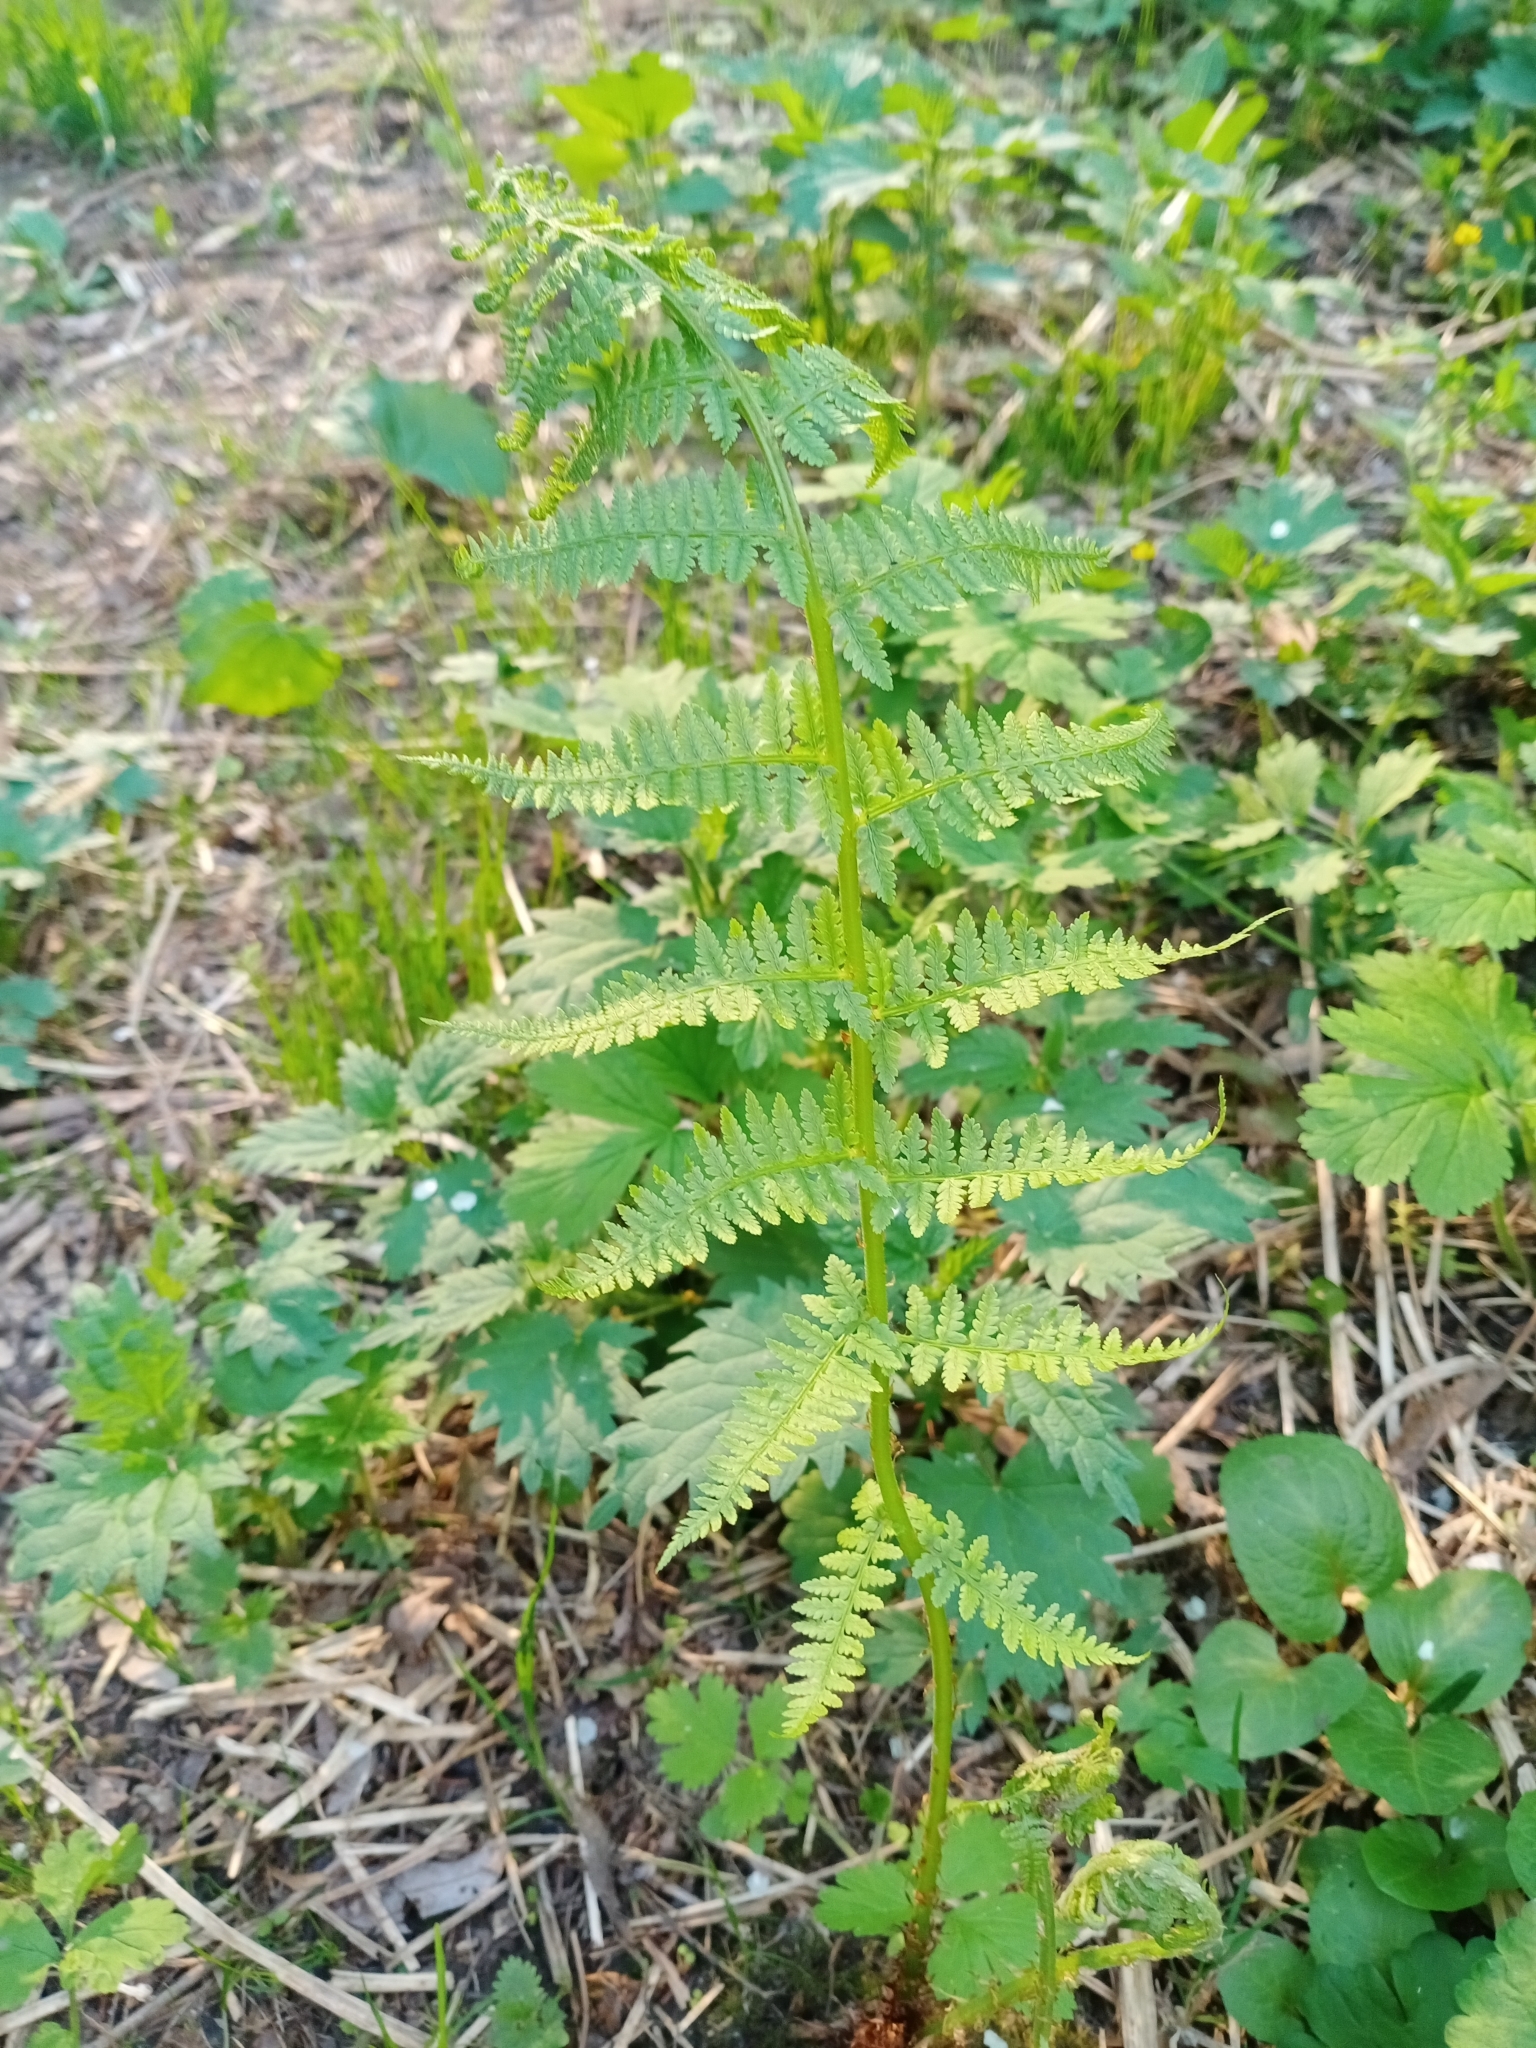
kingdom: Plantae
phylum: Tracheophyta
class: Polypodiopsida
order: Polypodiales
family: Athyriaceae
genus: Athyrium
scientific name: Athyrium filix-femina
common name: Lady fern
